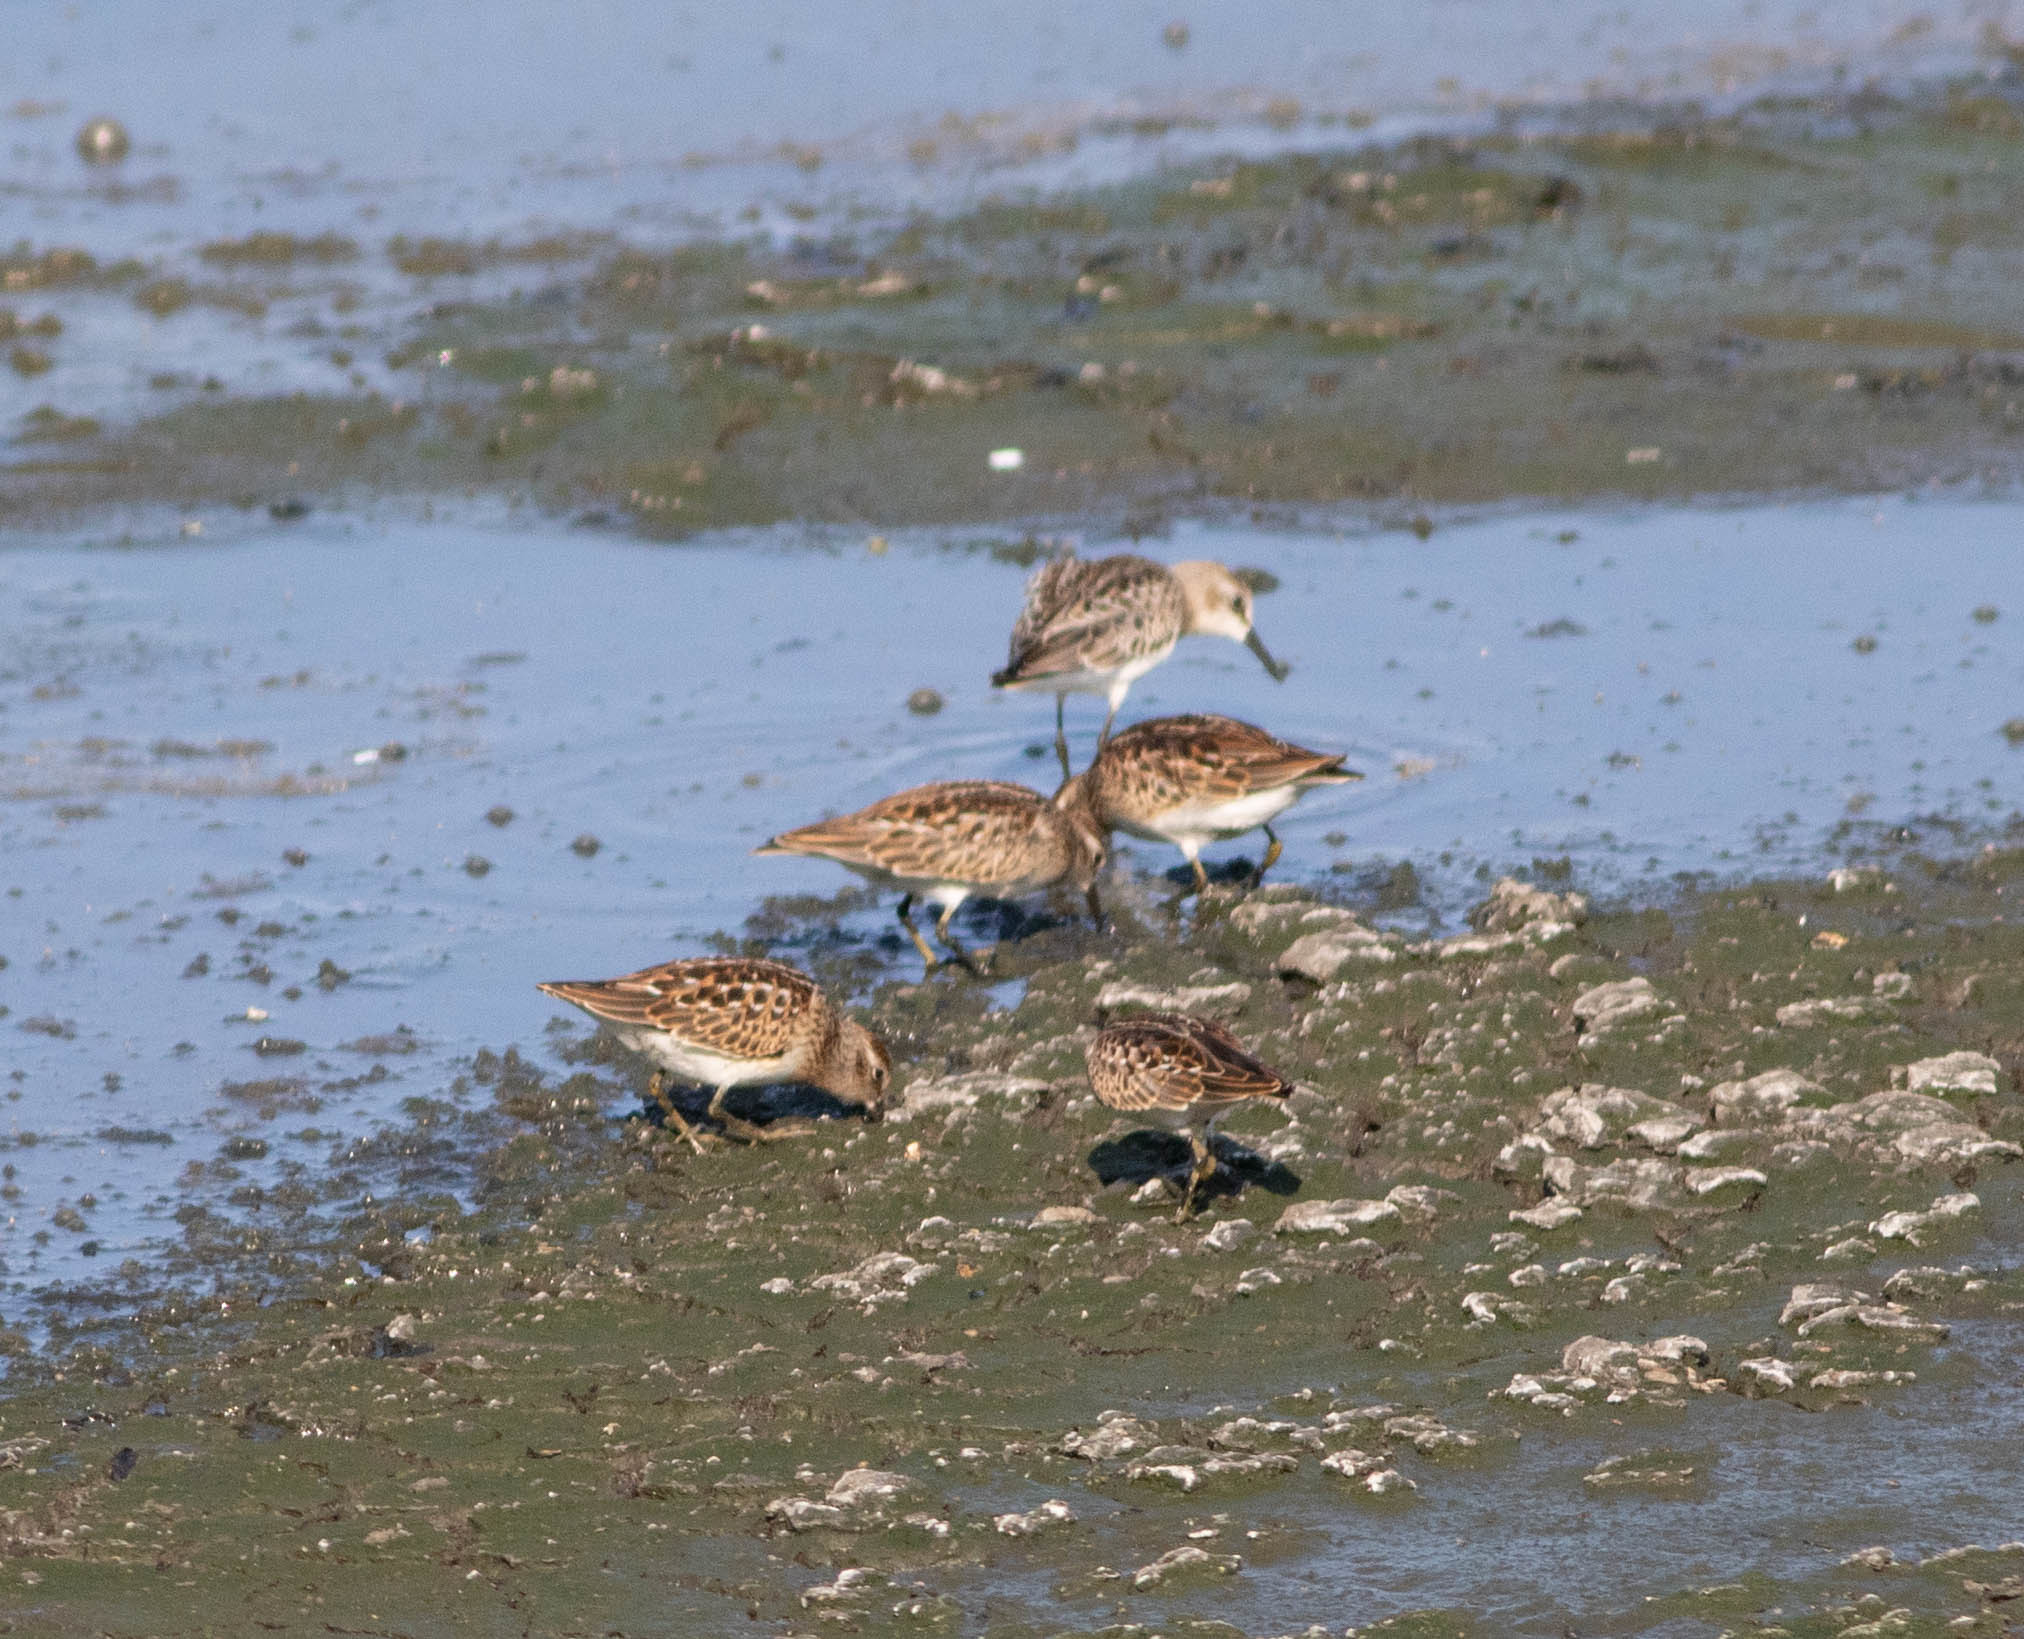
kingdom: Animalia
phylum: Chordata
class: Aves
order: Charadriiformes
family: Scolopacidae
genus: Calidris
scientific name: Calidris minutilla
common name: Least sandpiper
